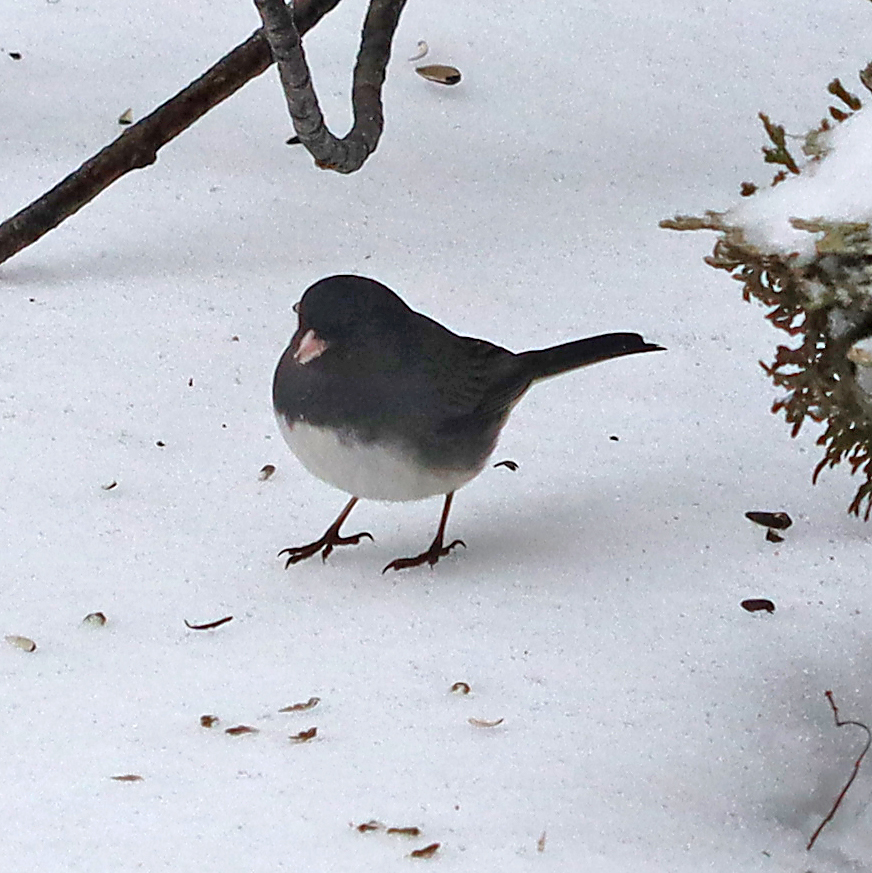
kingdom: Animalia
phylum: Chordata
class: Aves
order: Passeriformes
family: Passerellidae
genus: Junco
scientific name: Junco hyemalis
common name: Dark-eyed junco
